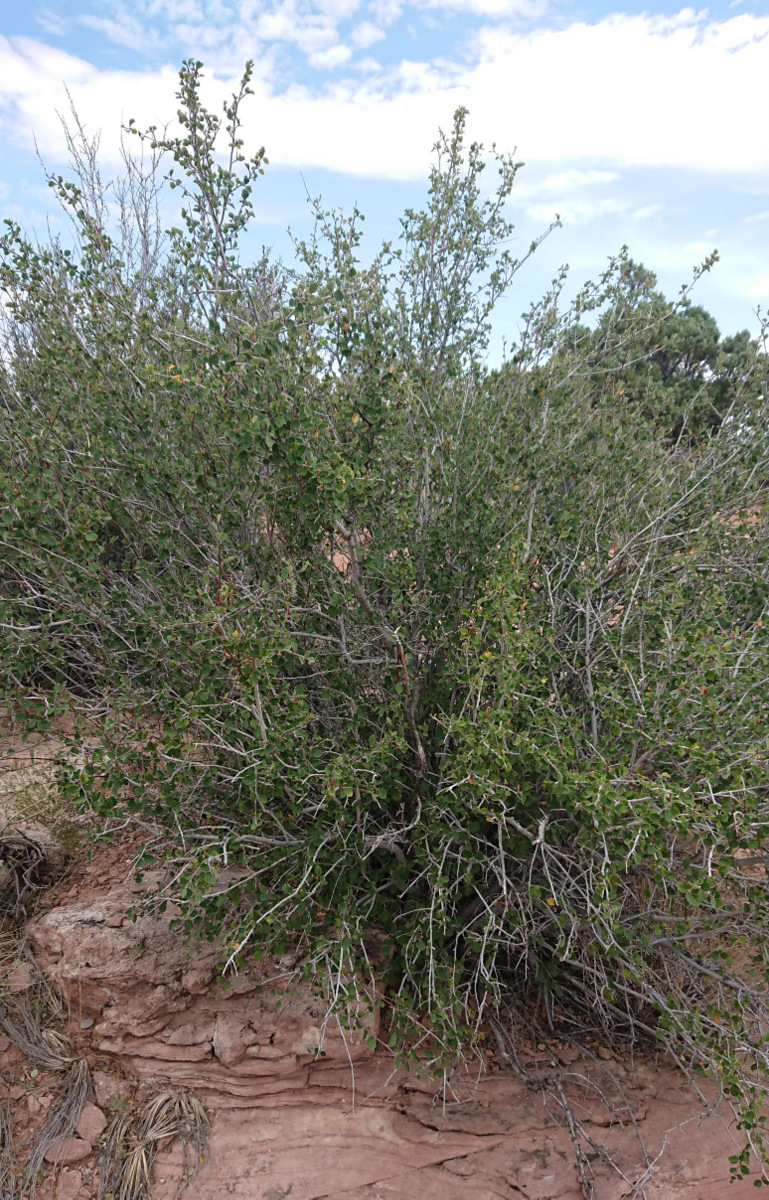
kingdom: Plantae
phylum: Tracheophyta
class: Magnoliopsida
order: Rosales
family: Rosaceae
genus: Cercocarpus
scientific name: Cercocarpus montanus
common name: Alder-leaf cercocarpus
